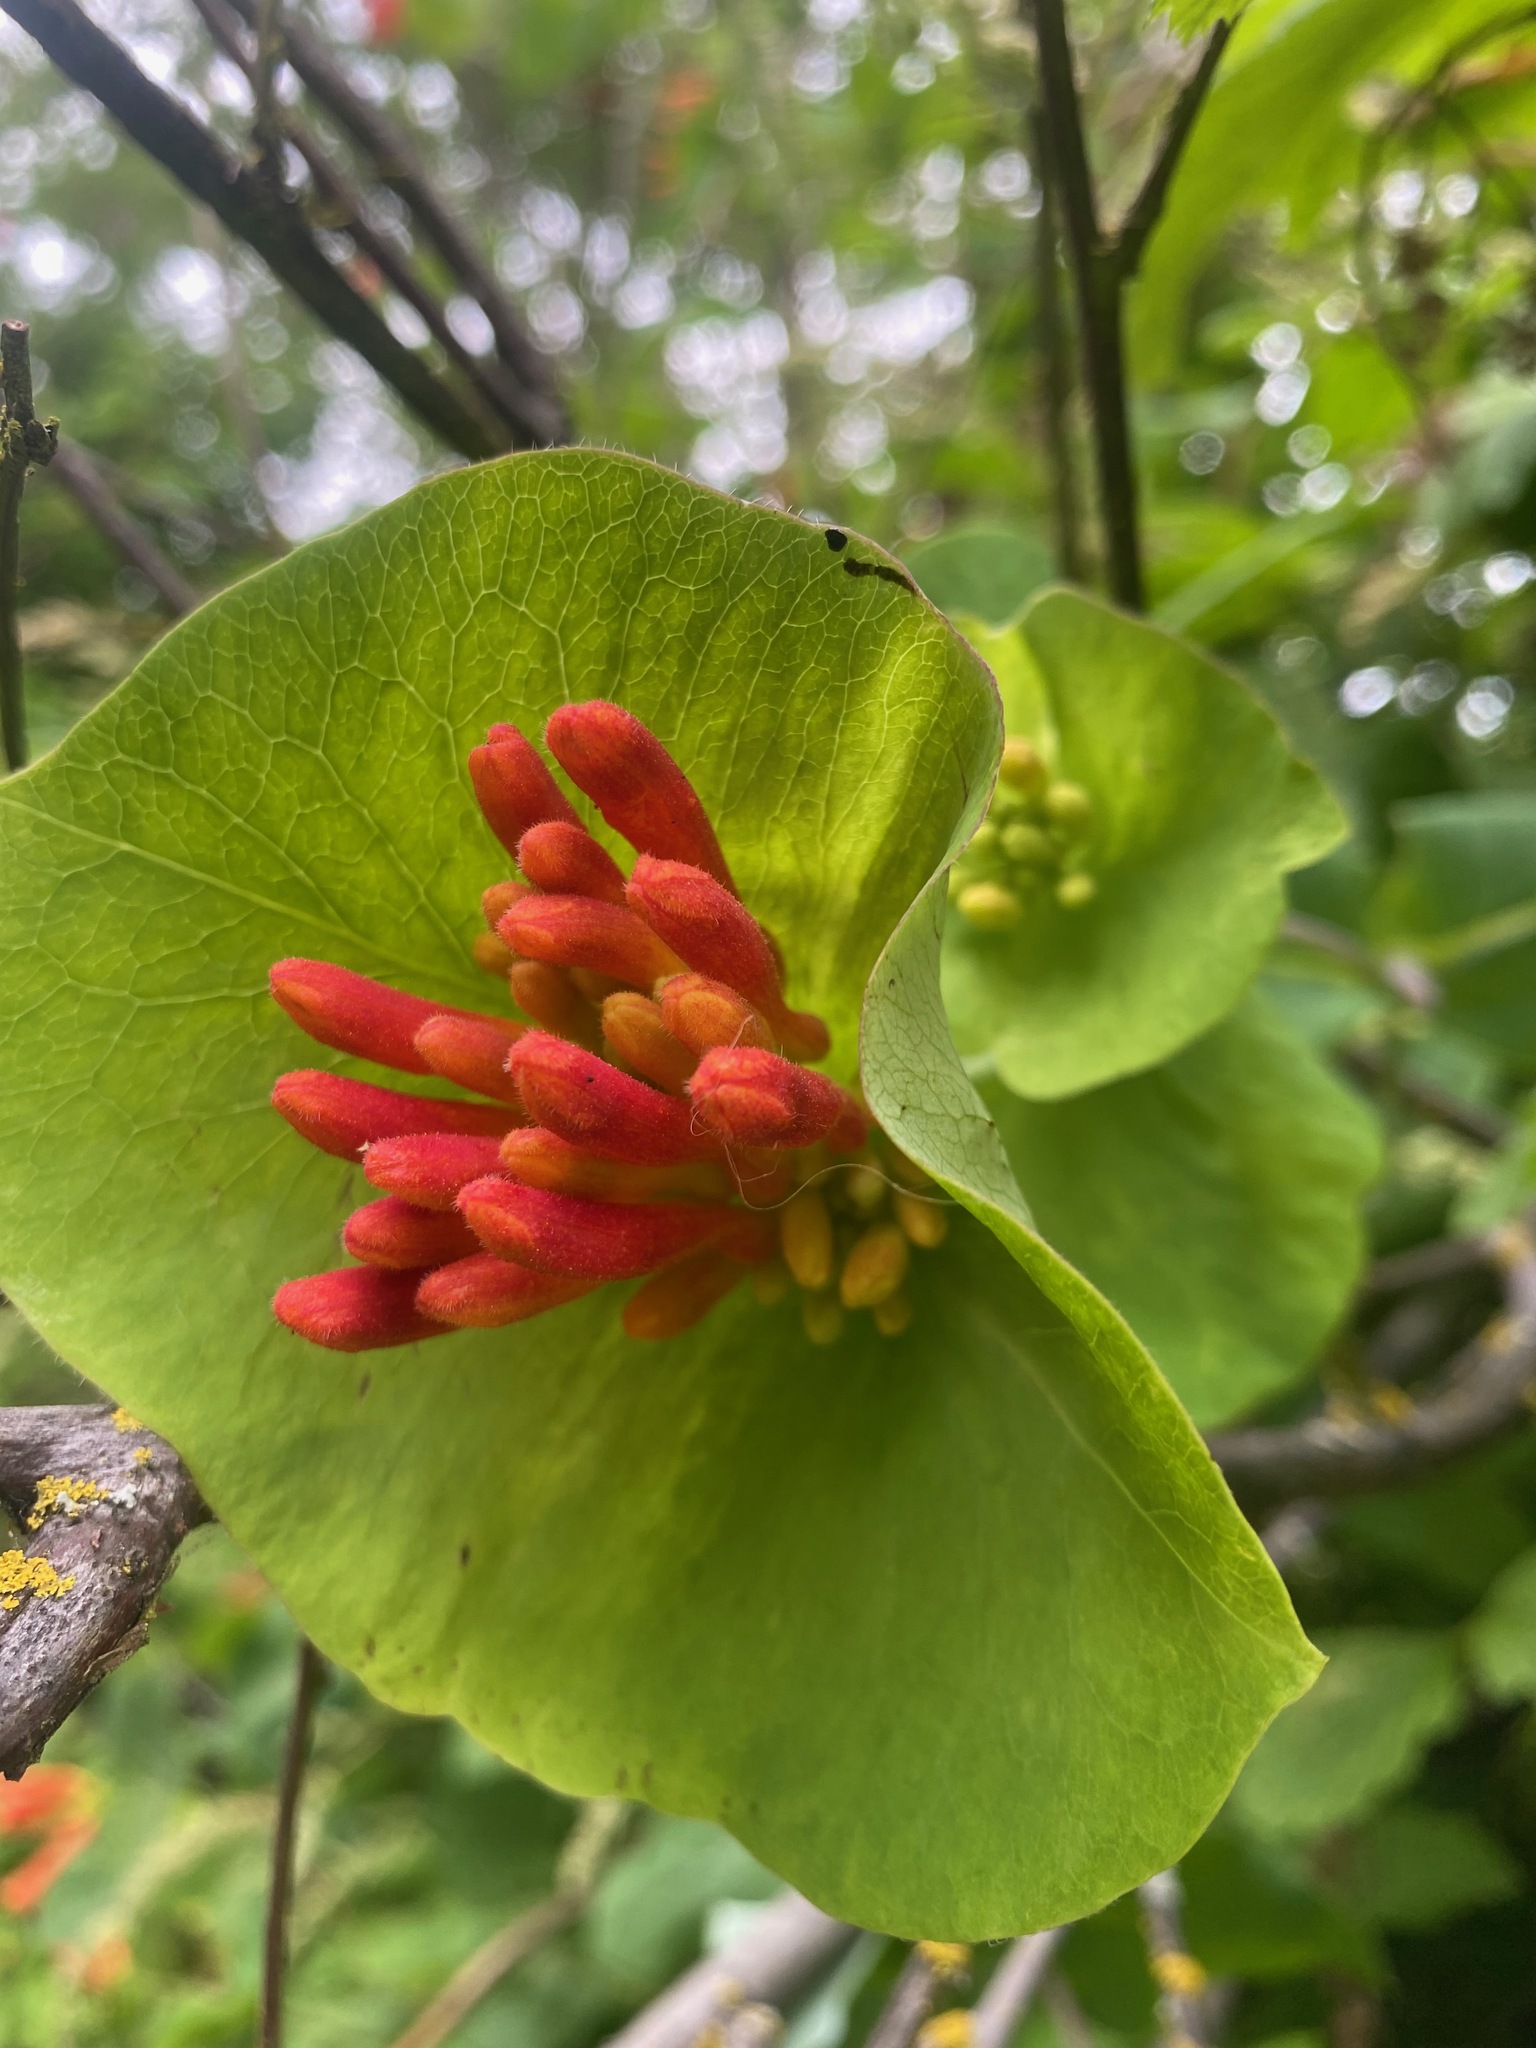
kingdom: Plantae
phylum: Tracheophyta
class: Magnoliopsida
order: Dipsacales
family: Caprifoliaceae
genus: Lonicera
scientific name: Lonicera ciliosa
